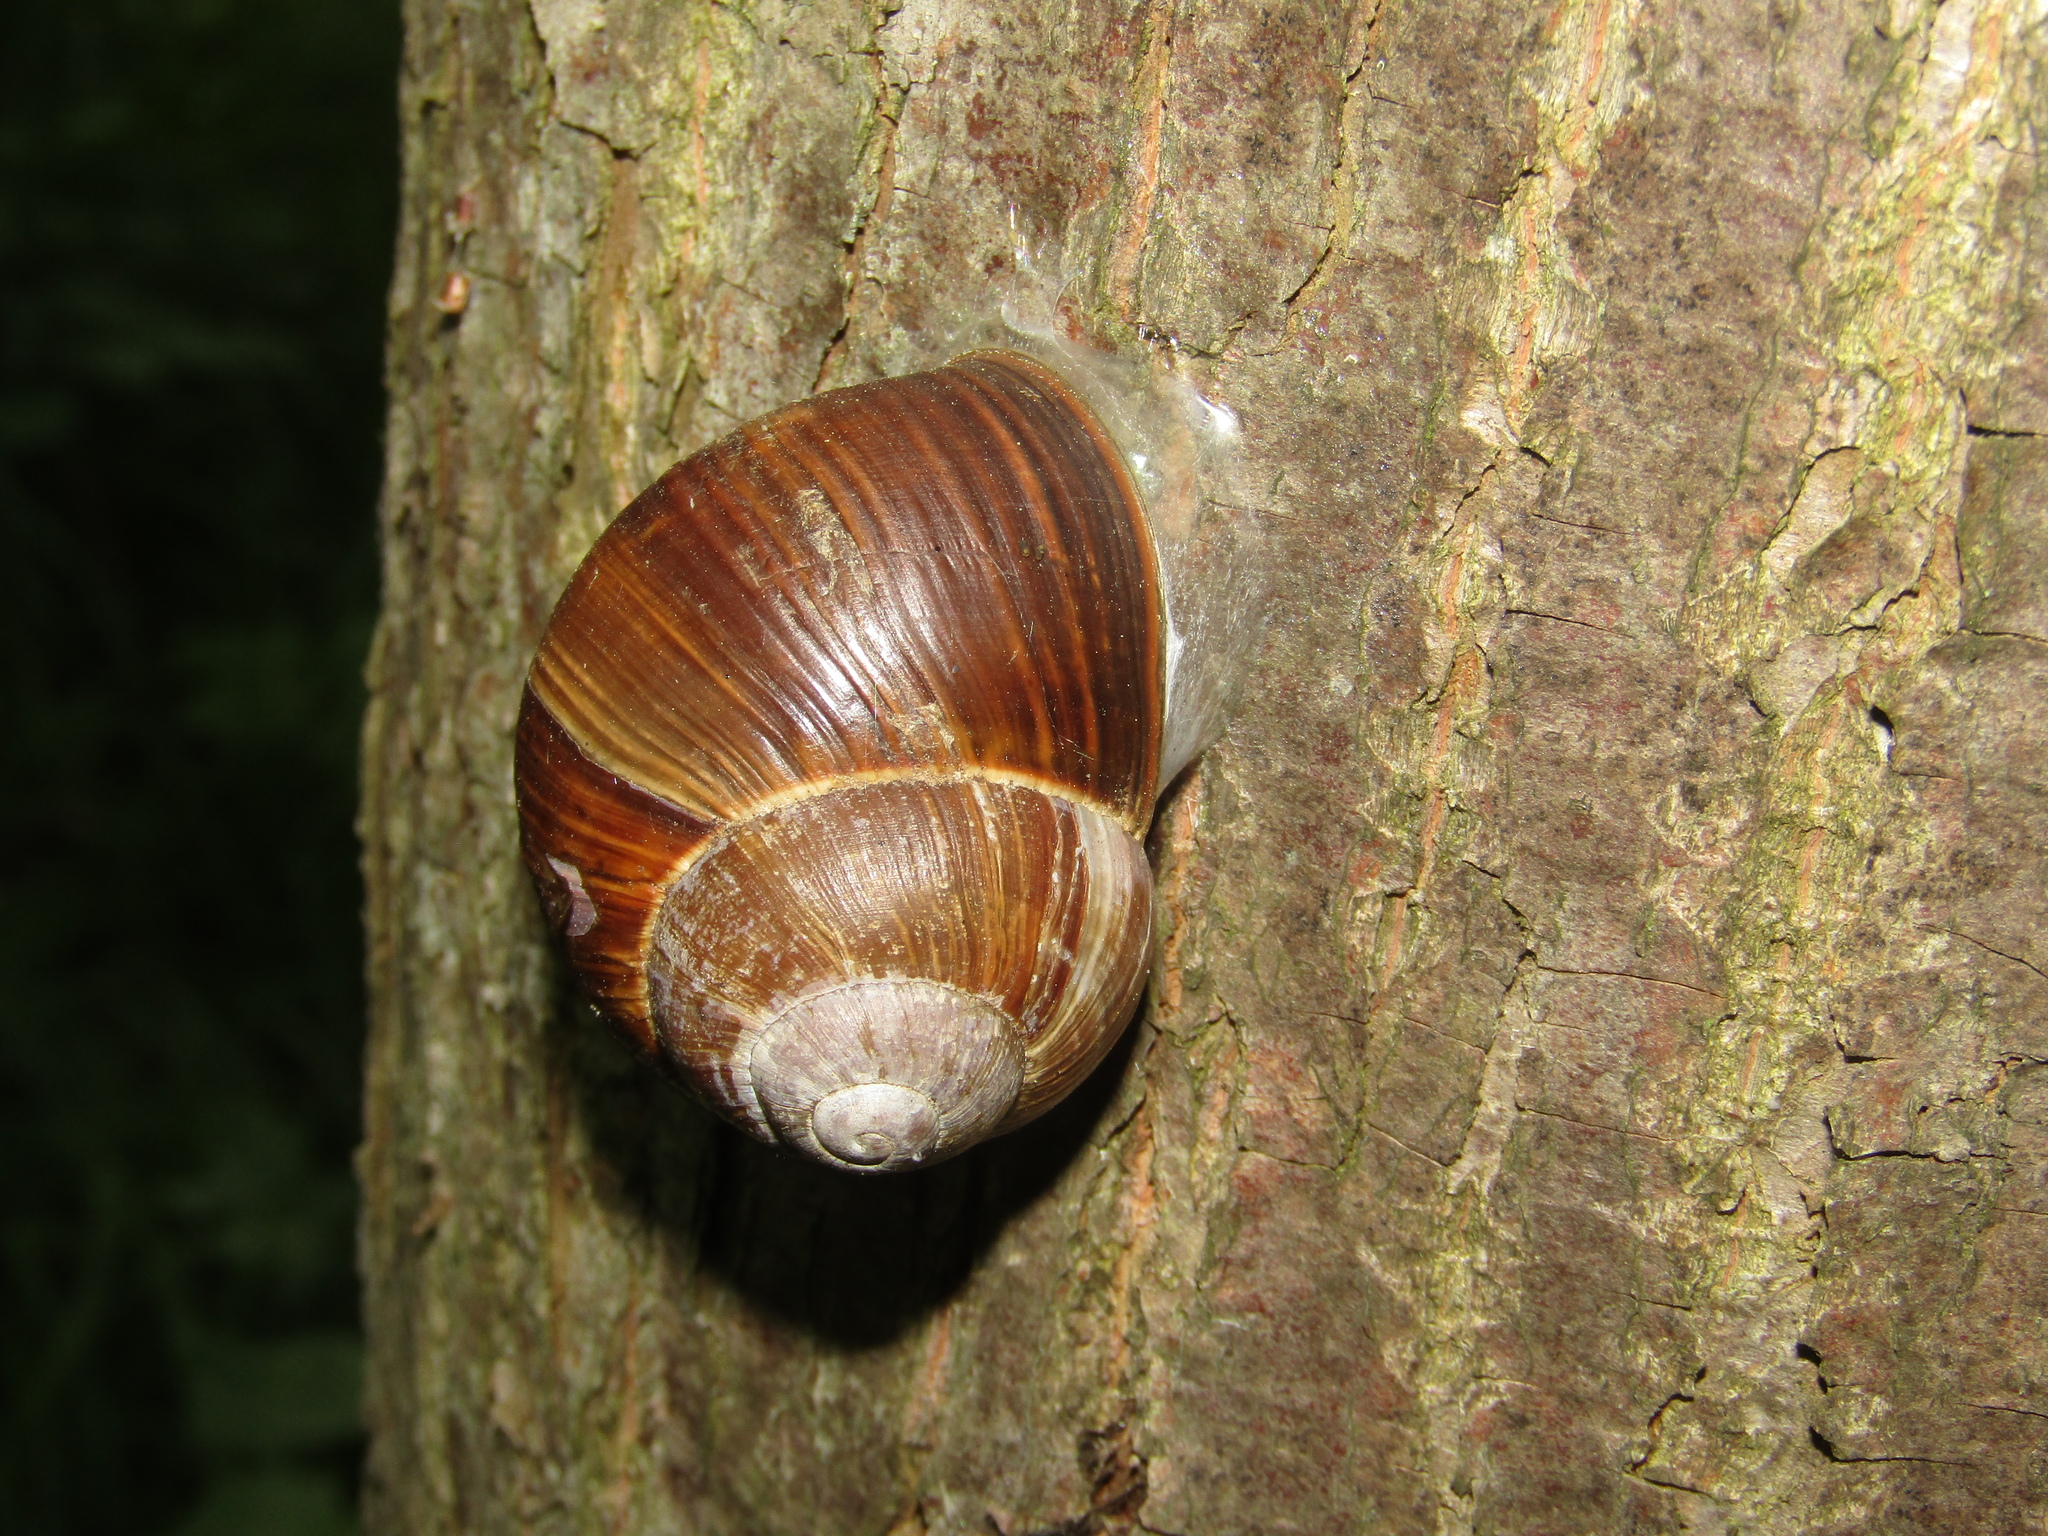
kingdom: Animalia
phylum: Mollusca
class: Gastropoda
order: Stylommatophora
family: Helicidae
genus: Helix
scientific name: Helix pomatia
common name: Roman snail
